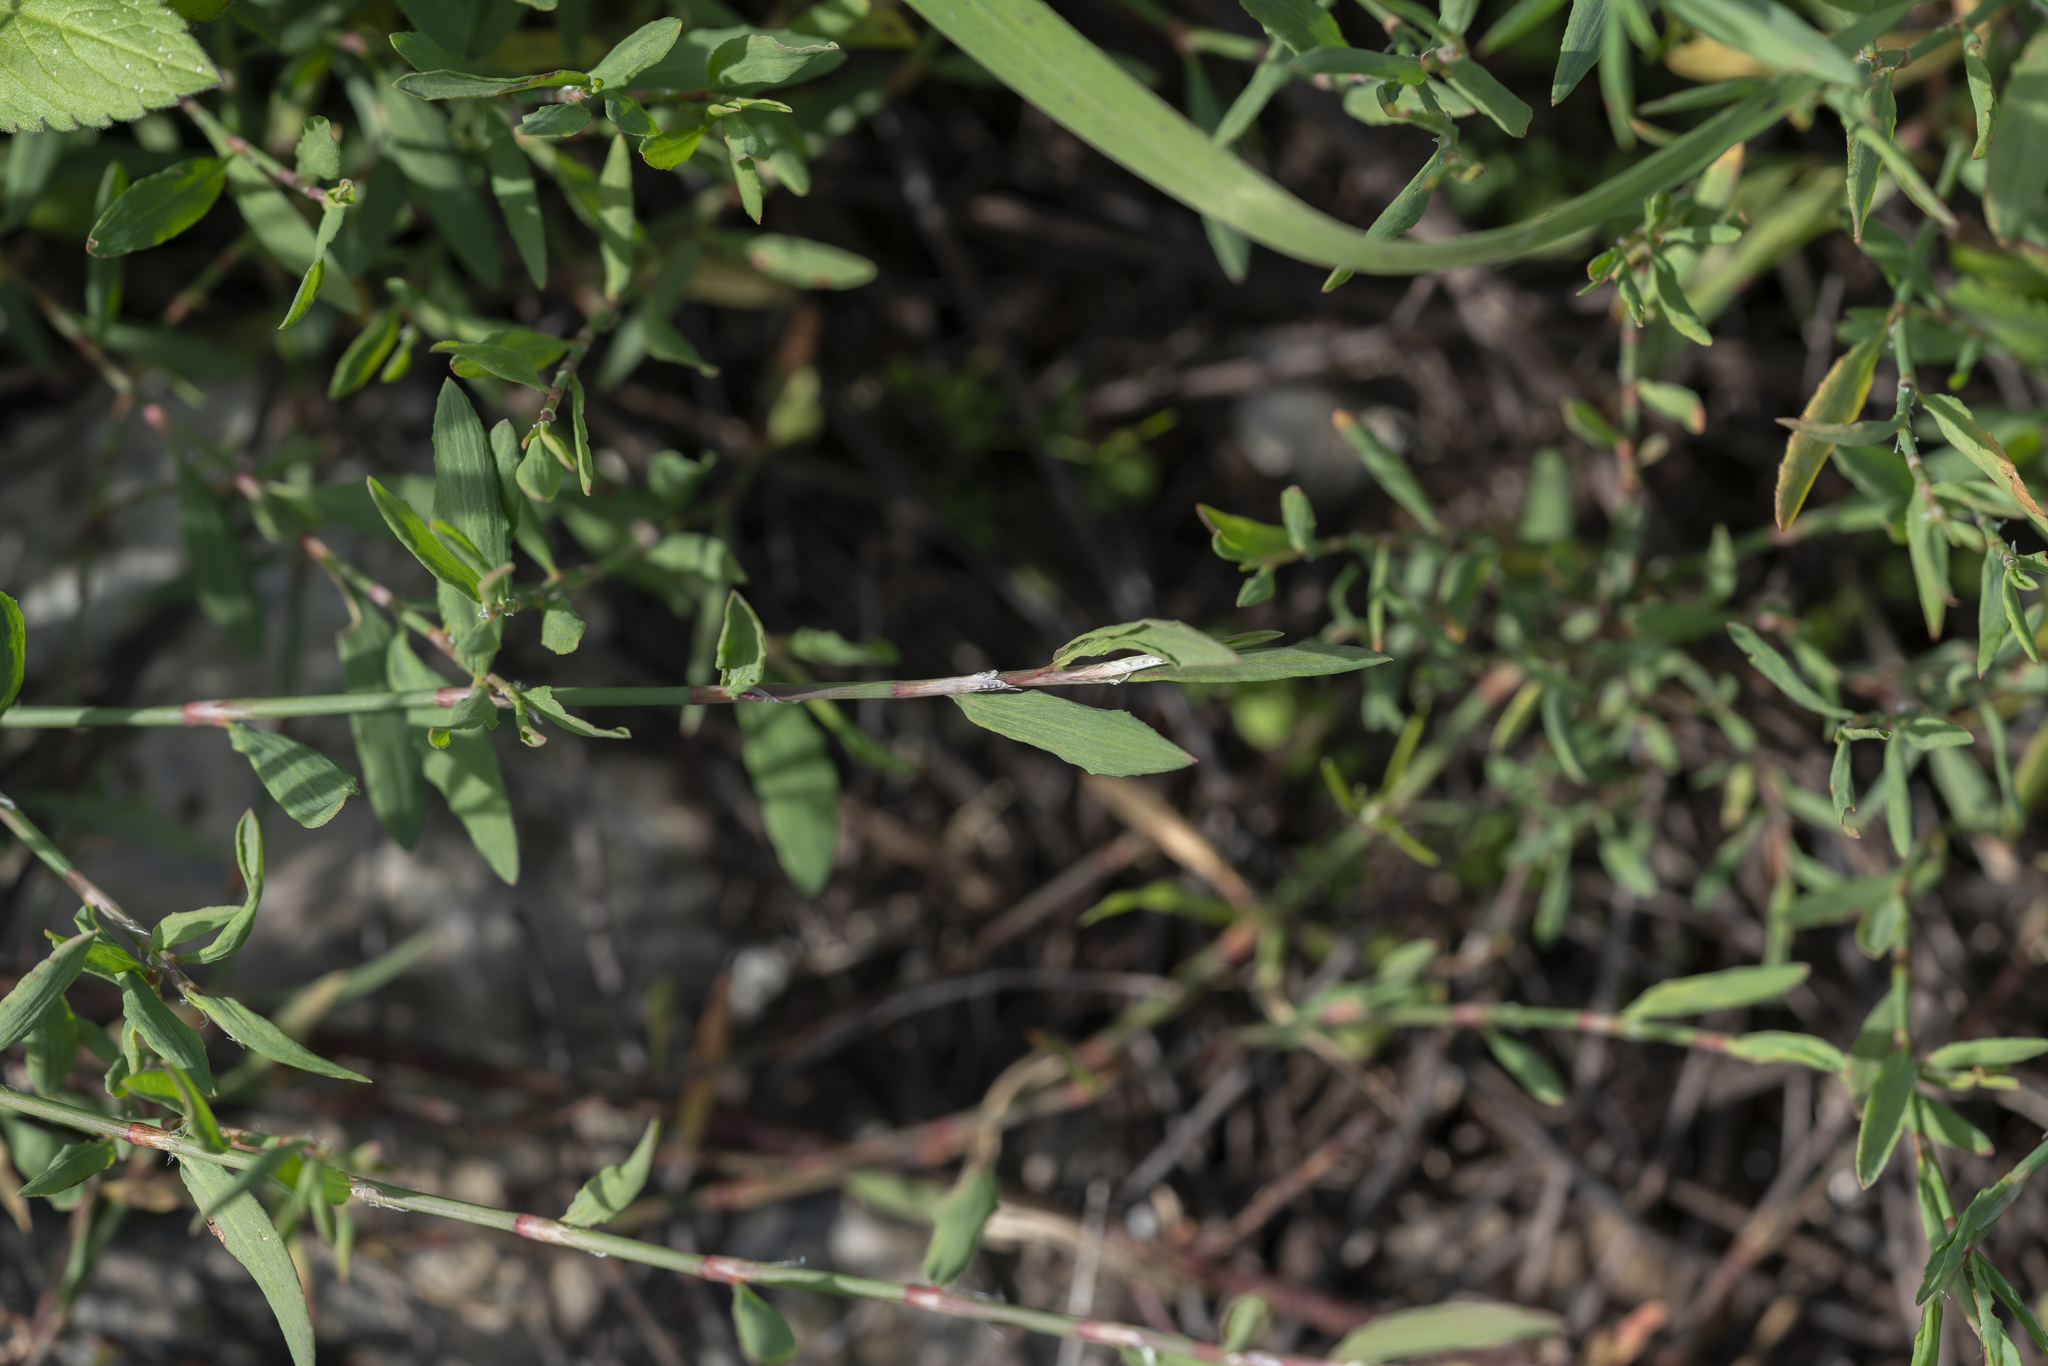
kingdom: Plantae
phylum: Tracheophyta
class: Magnoliopsida
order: Caryophyllales
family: Polygonaceae
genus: Polygonum
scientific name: Polygonum aviculare
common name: Prostrate knotweed
